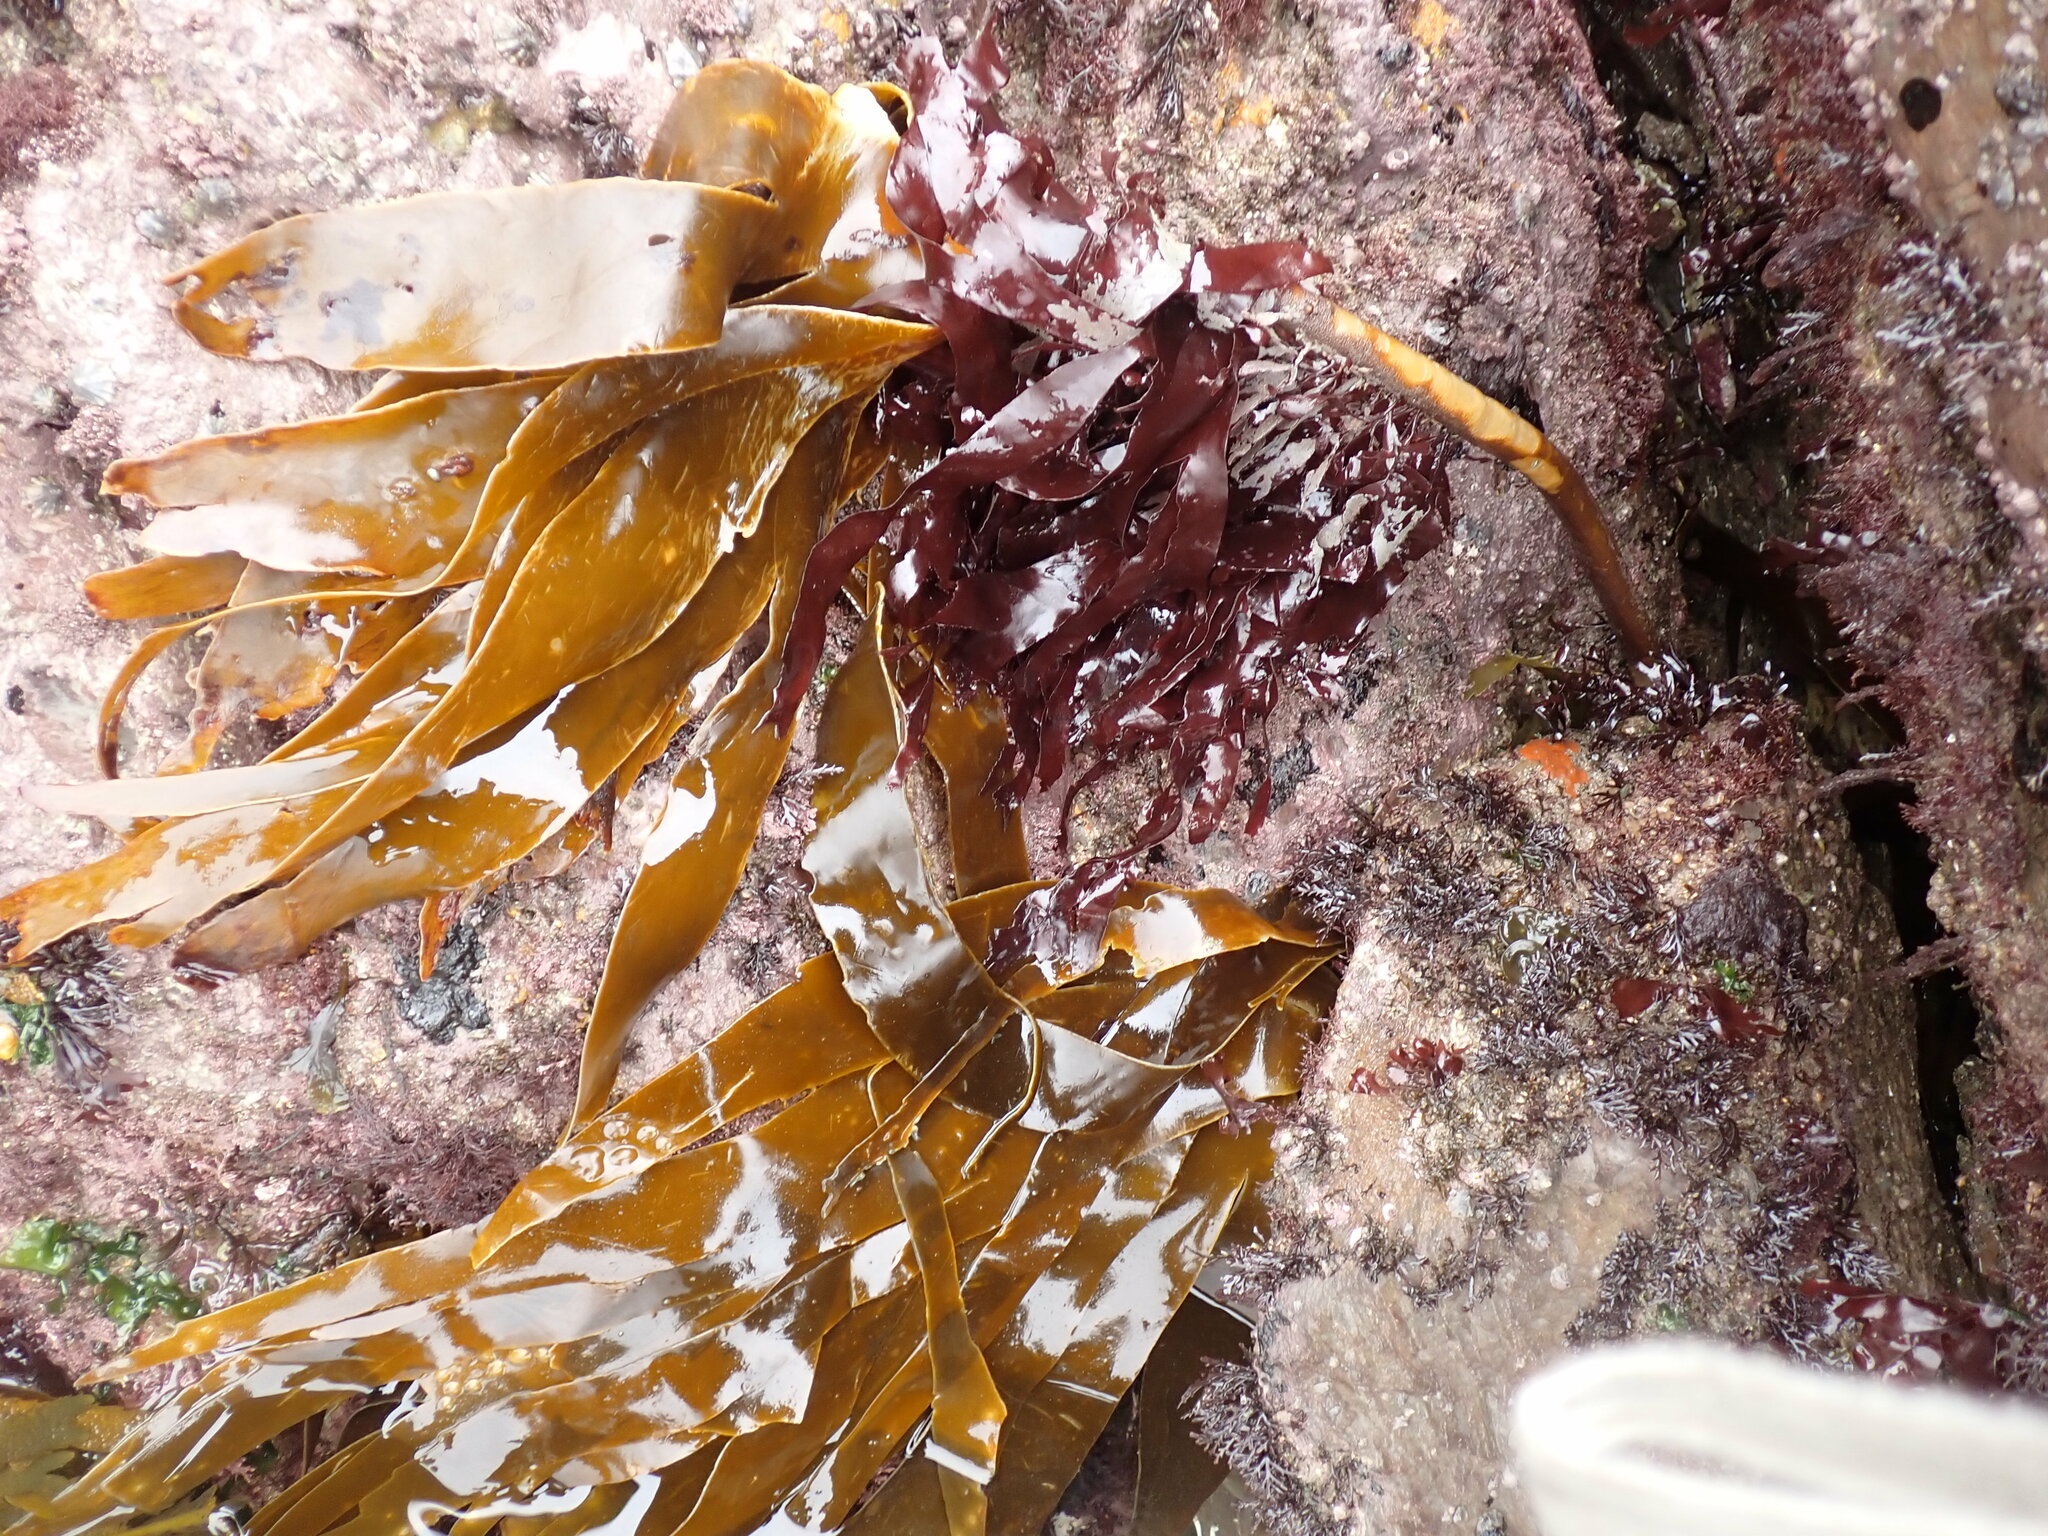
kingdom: Chromista
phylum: Ochrophyta
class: Phaeophyceae
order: Laminariales
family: Laminariaceae
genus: Laminaria
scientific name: Laminaria hyperborea
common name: Cuvie
